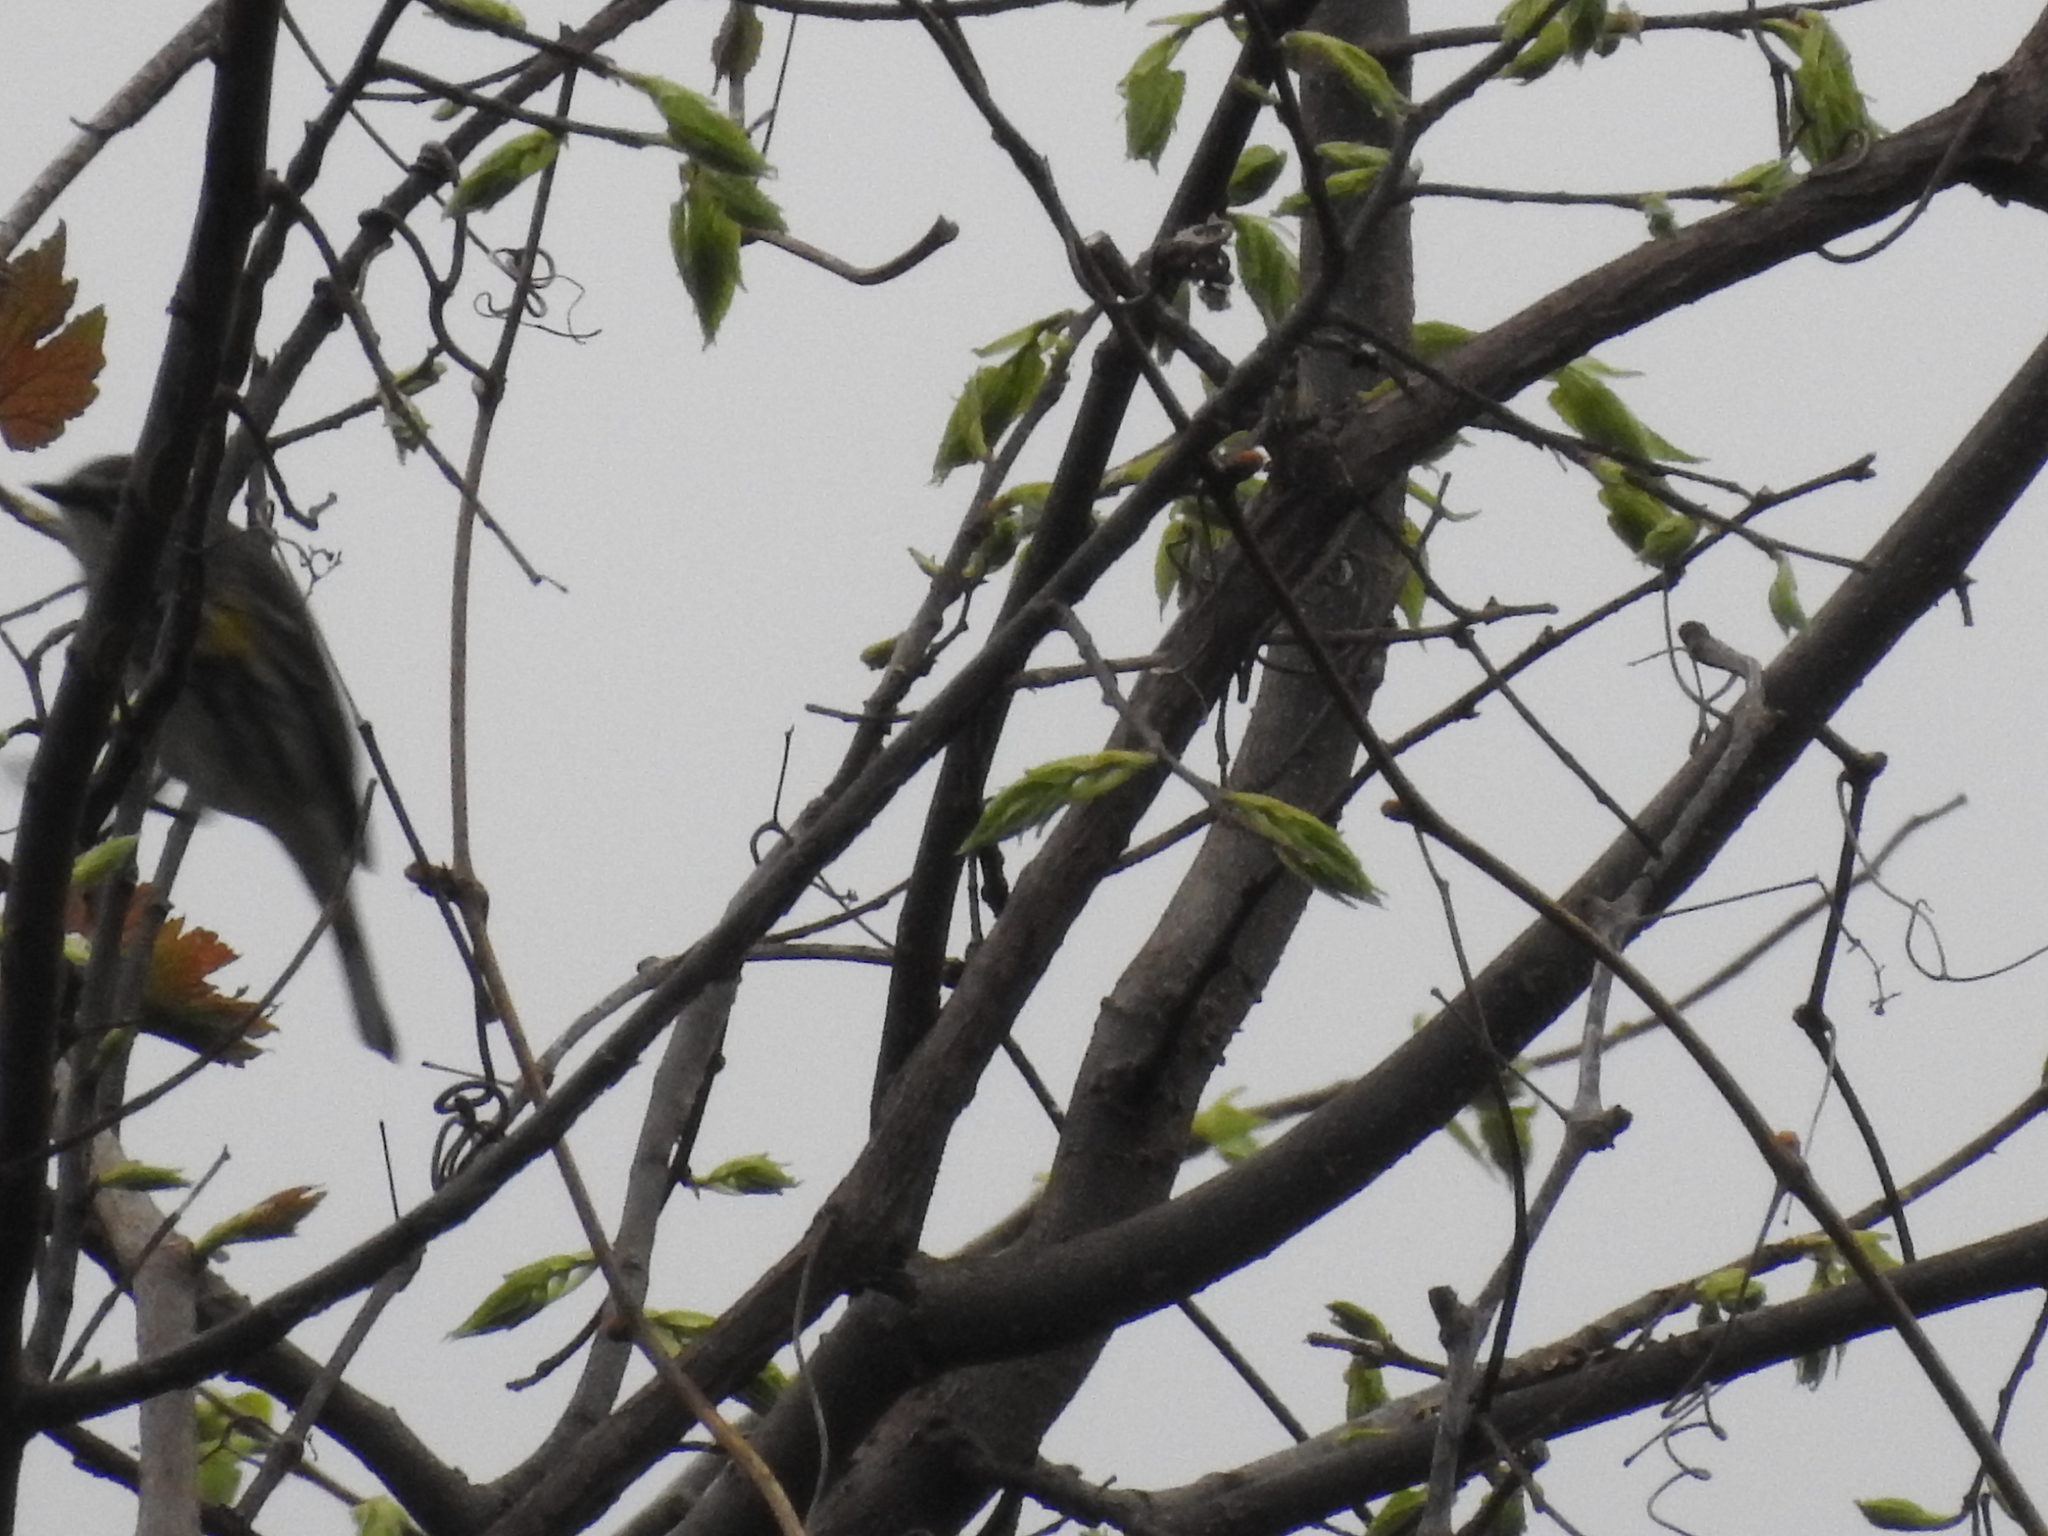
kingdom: Animalia
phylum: Chordata
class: Aves
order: Passeriformes
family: Parulidae
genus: Setophaga
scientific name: Setophaga coronata
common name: Myrtle warbler
